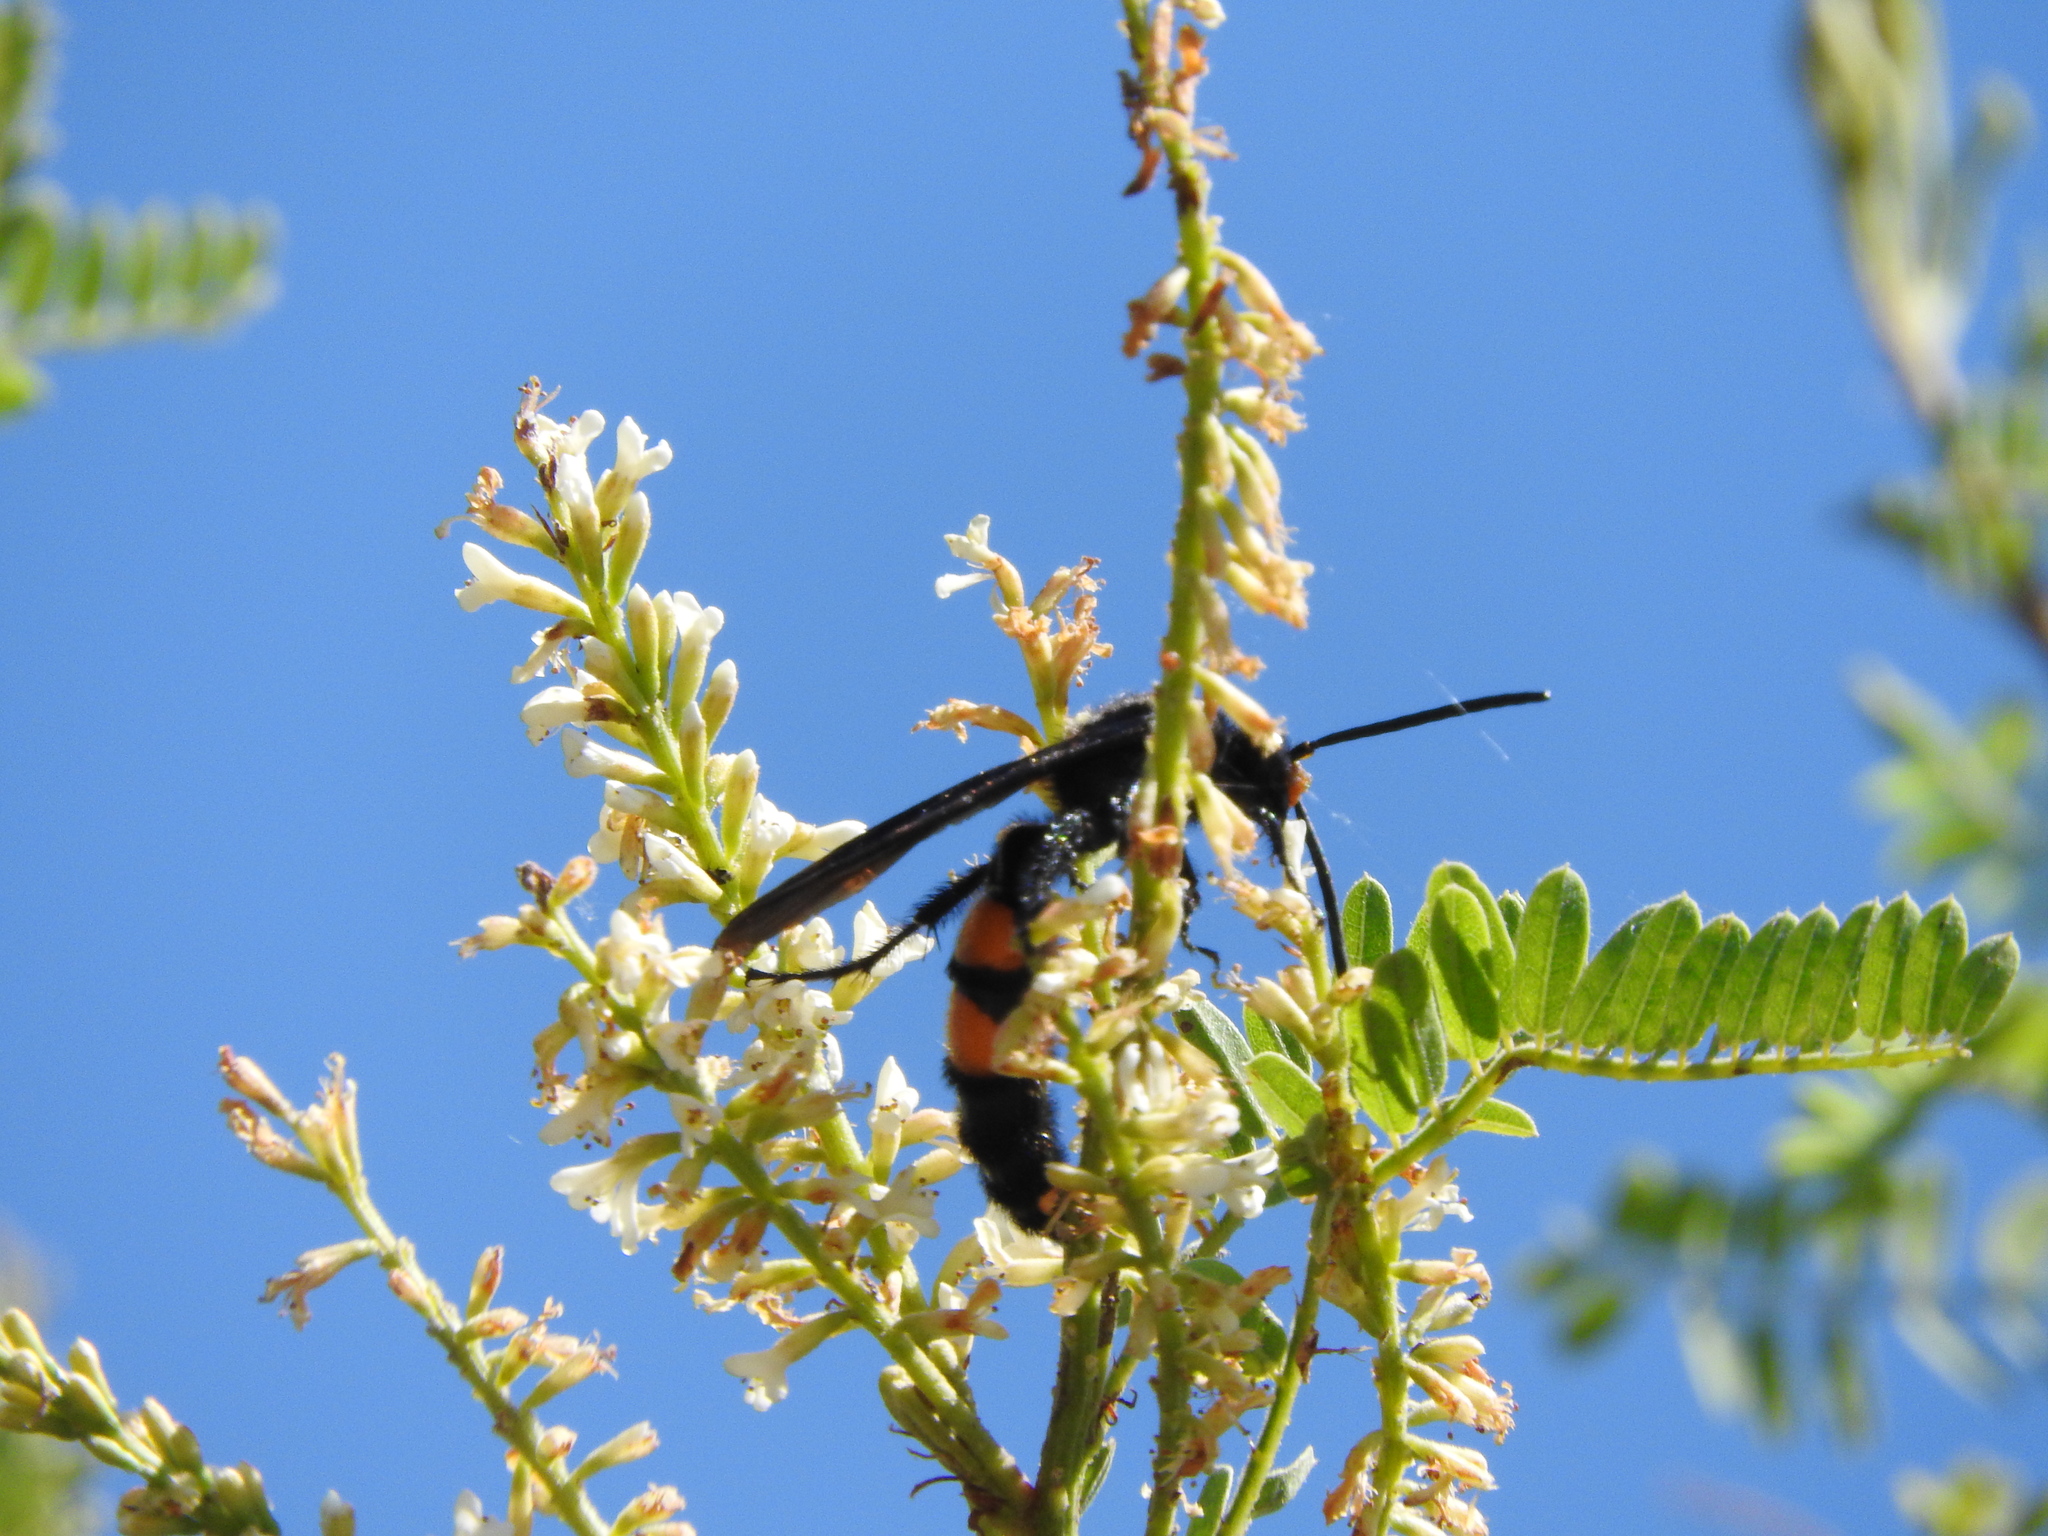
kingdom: Animalia
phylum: Arthropoda
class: Insecta
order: Hymenoptera
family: Scoliidae
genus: Pygodasis
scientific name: Pygodasis ephippium
